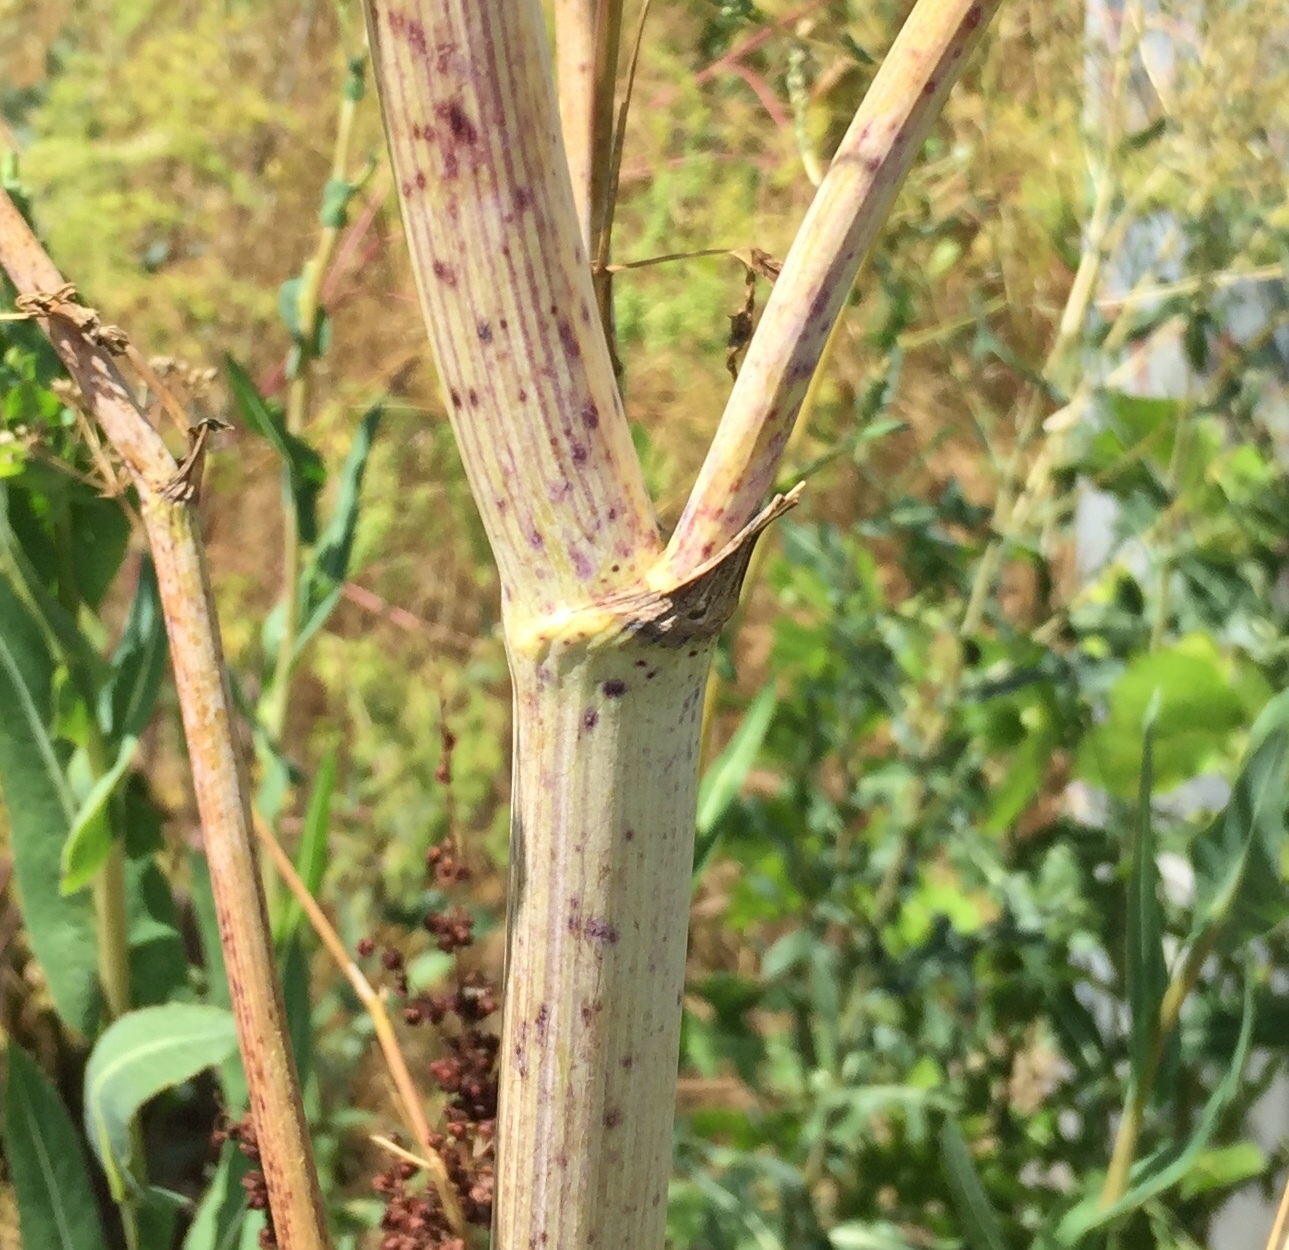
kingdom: Plantae
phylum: Tracheophyta
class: Magnoliopsida
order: Apiales
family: Apiaceae
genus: Conium
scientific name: Conium maculatum
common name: Hemlock
